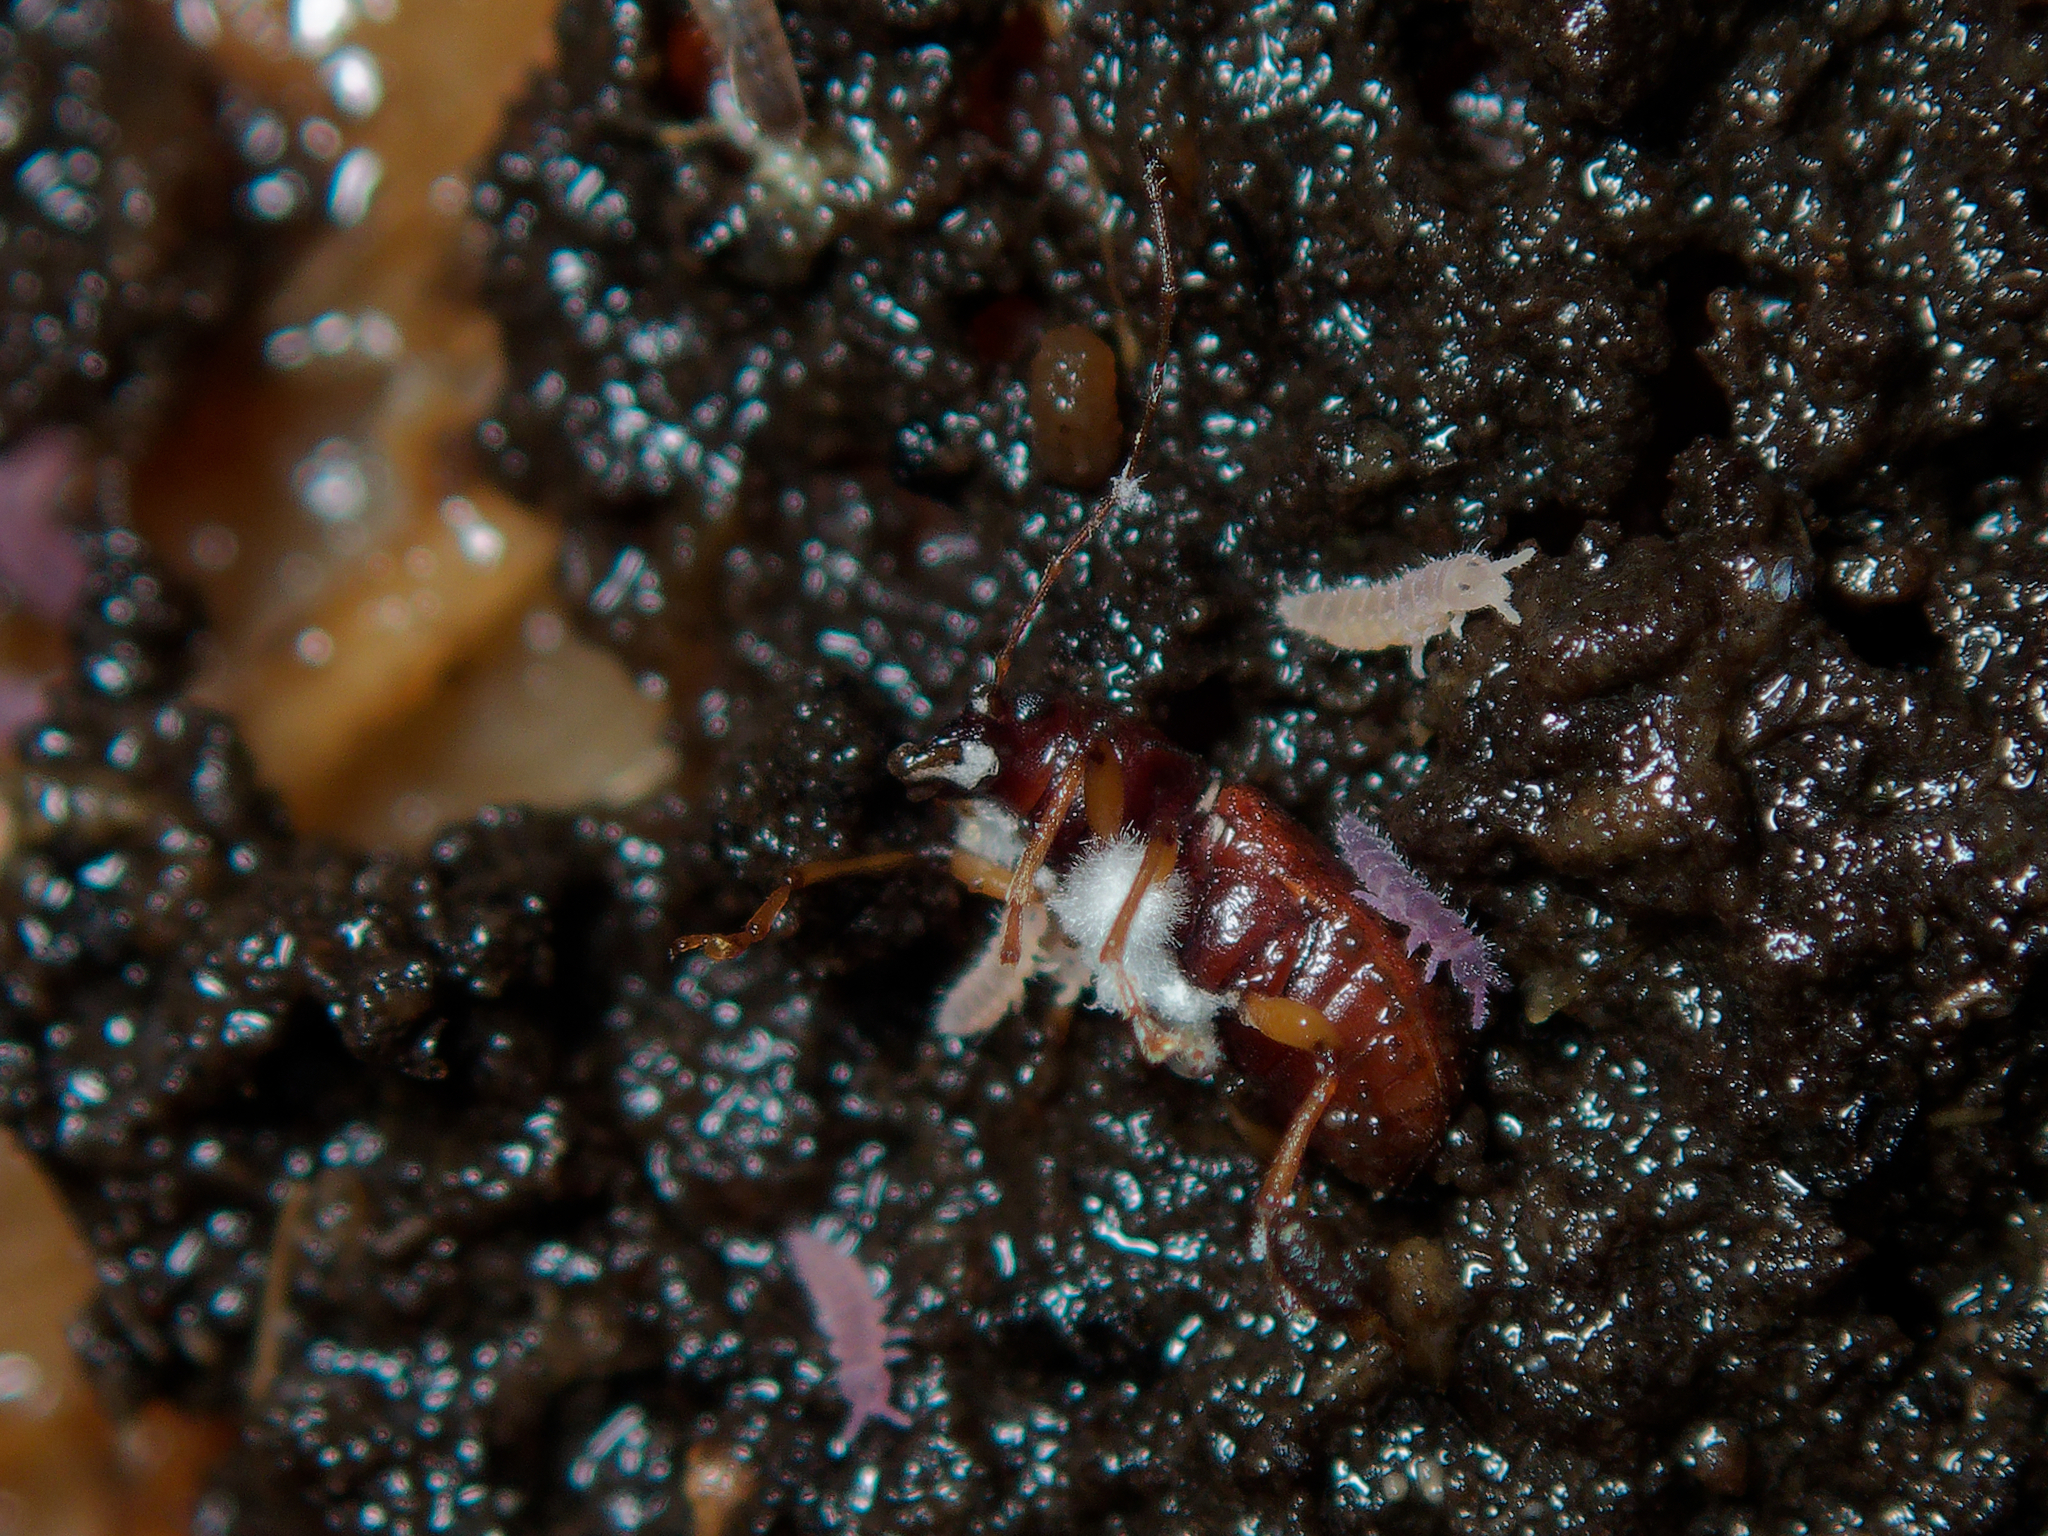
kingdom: Animalia
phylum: Arthropoda
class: Insecta
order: Coleoptera
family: Anthribidae
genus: Arecopais
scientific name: Arecopais spectabilis
